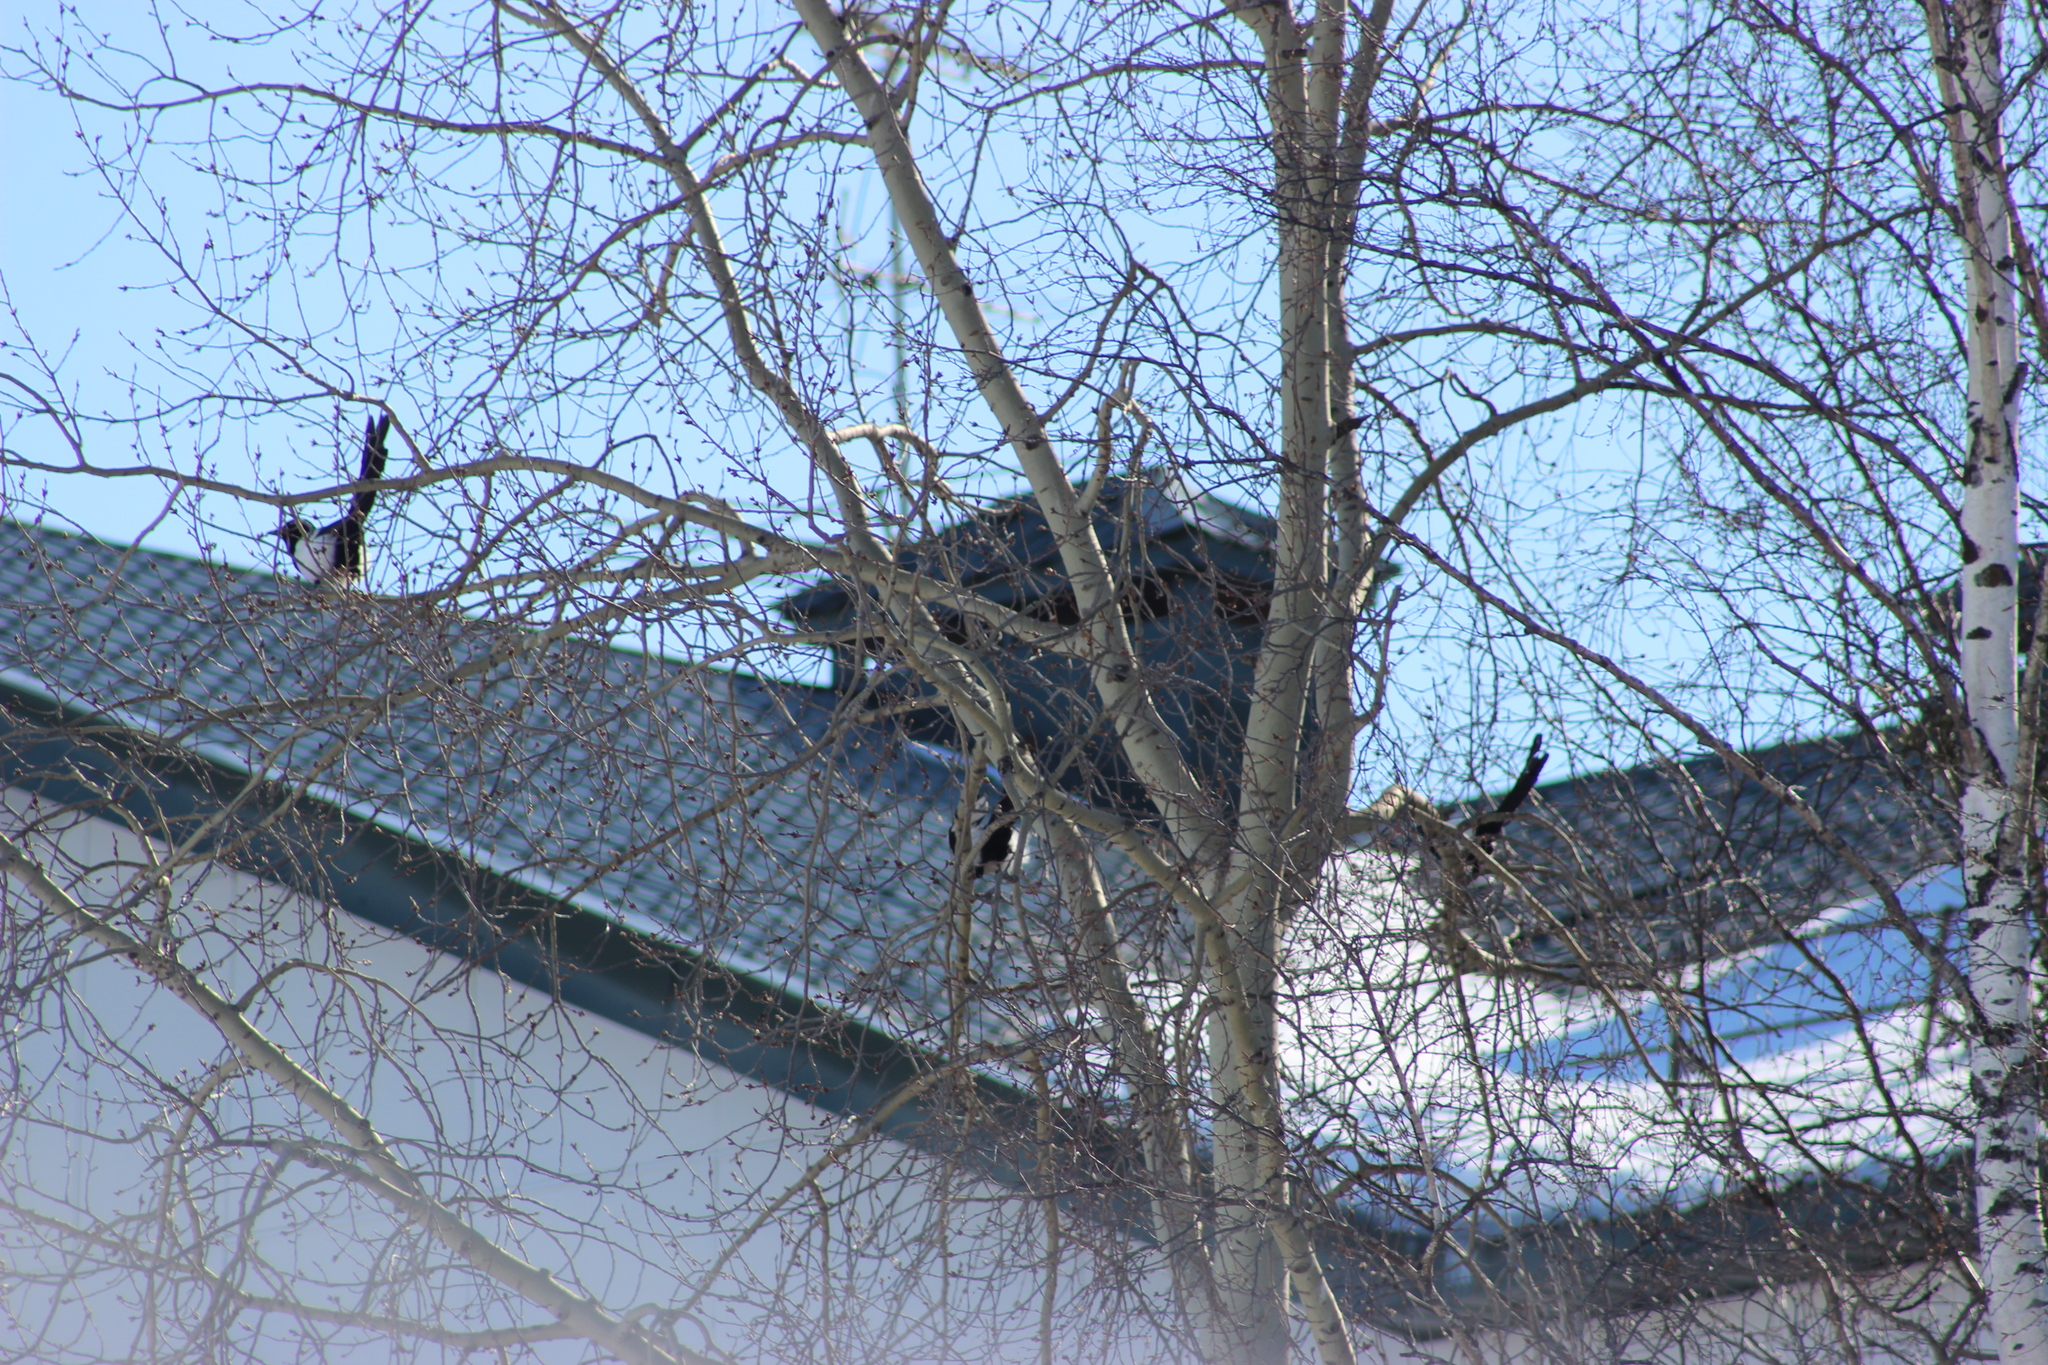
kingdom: Animalia
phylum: Chordata
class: Aves
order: Passeriformes
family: Corvidae
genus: Pica
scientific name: Pica pica
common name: Eurasian magpie
